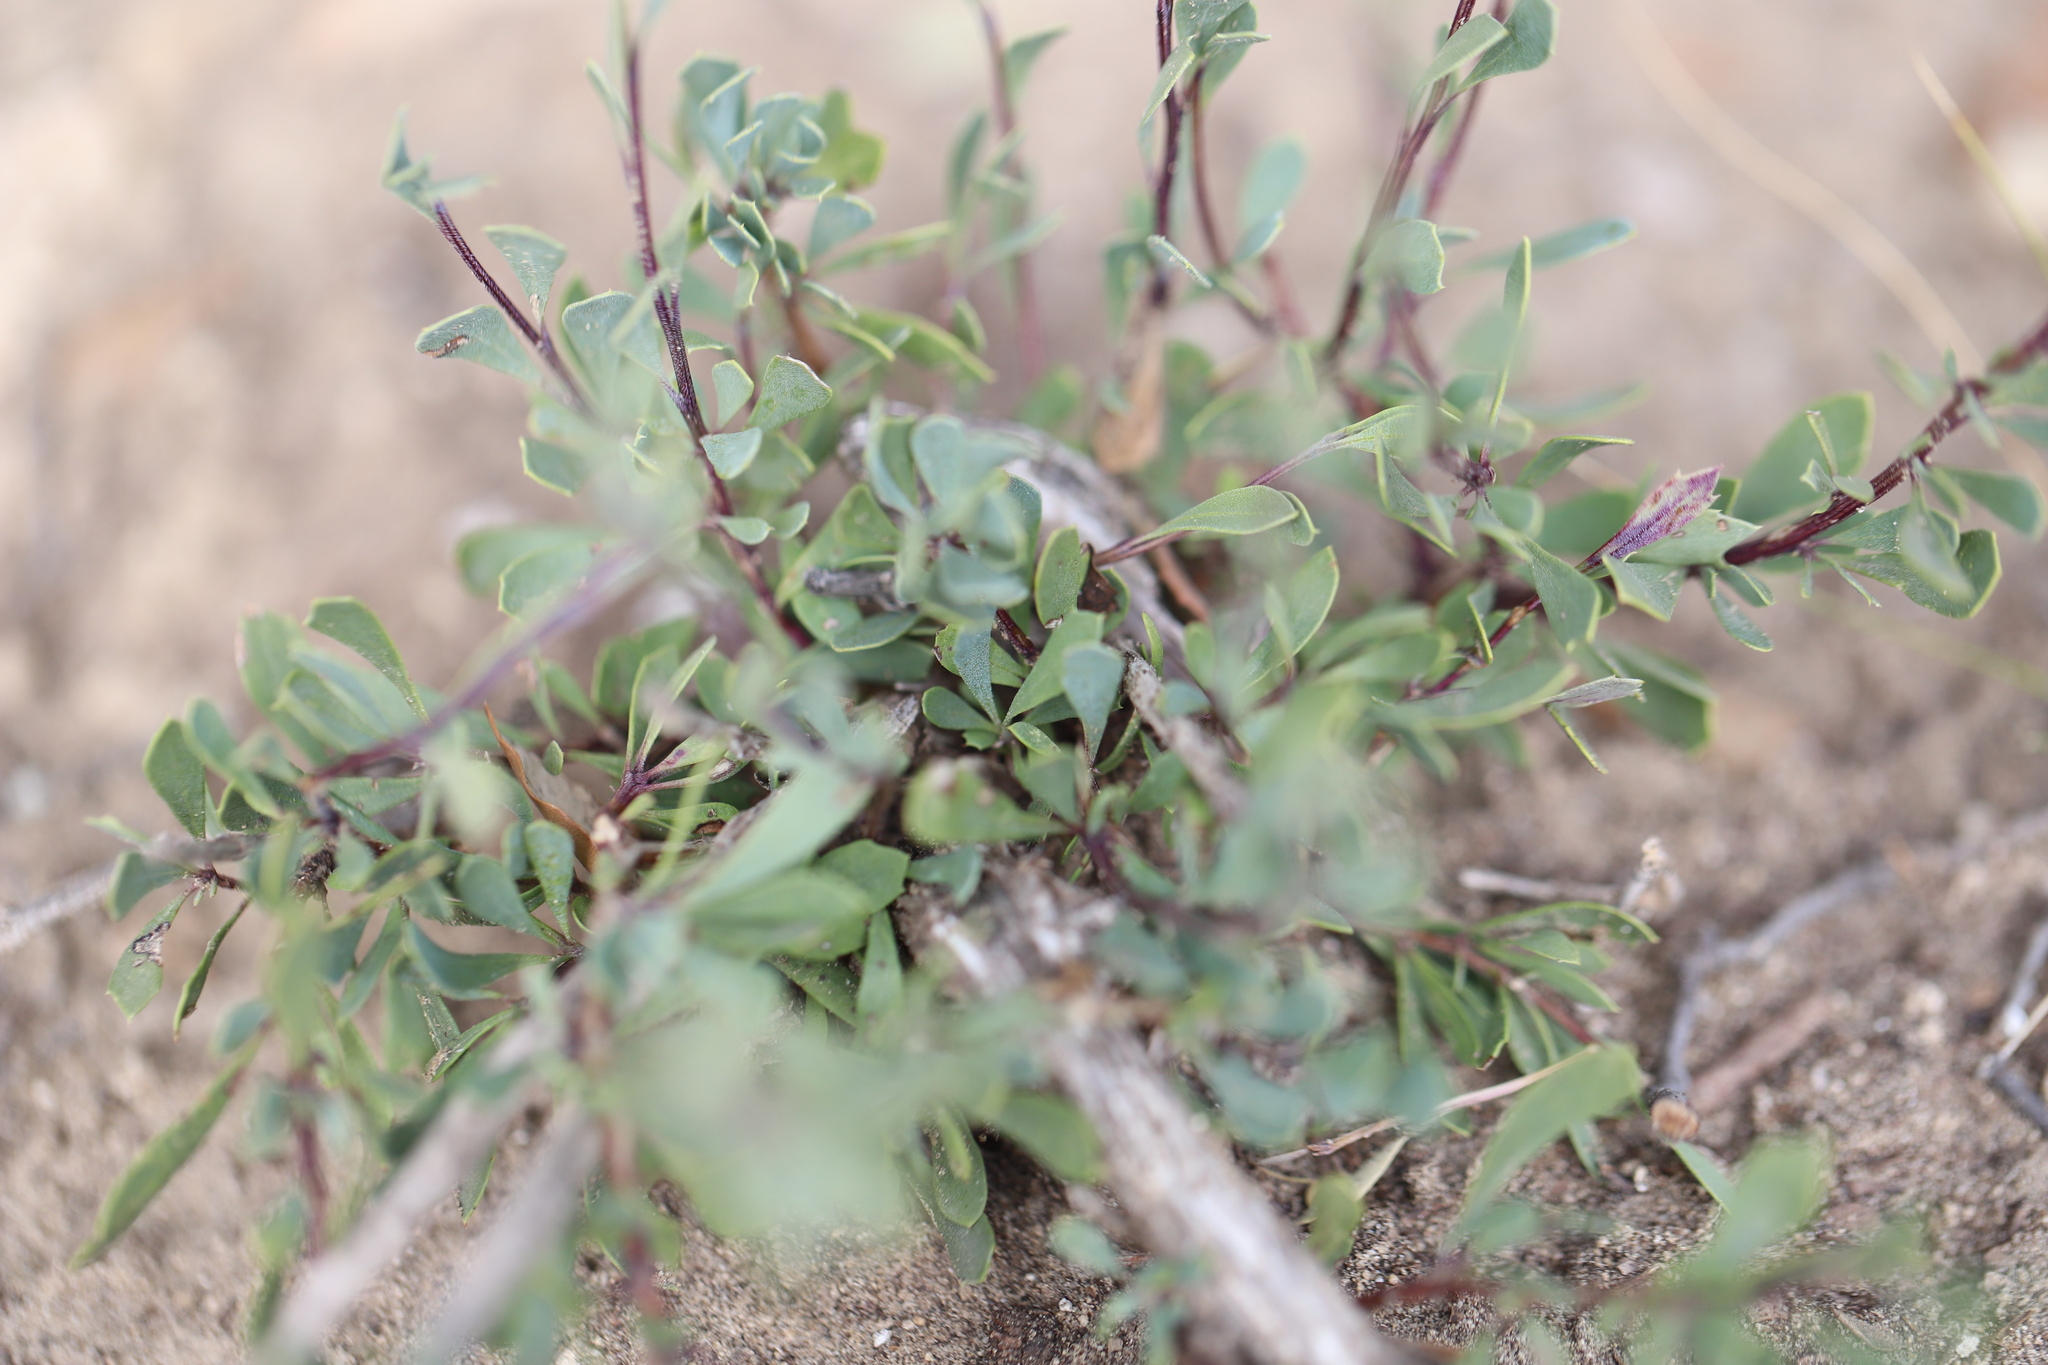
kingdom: Plantae
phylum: Tracheophyta
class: Magnoliopsida
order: Lamiales
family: Plantaginaceae
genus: Globularia
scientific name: Globularia alypum
